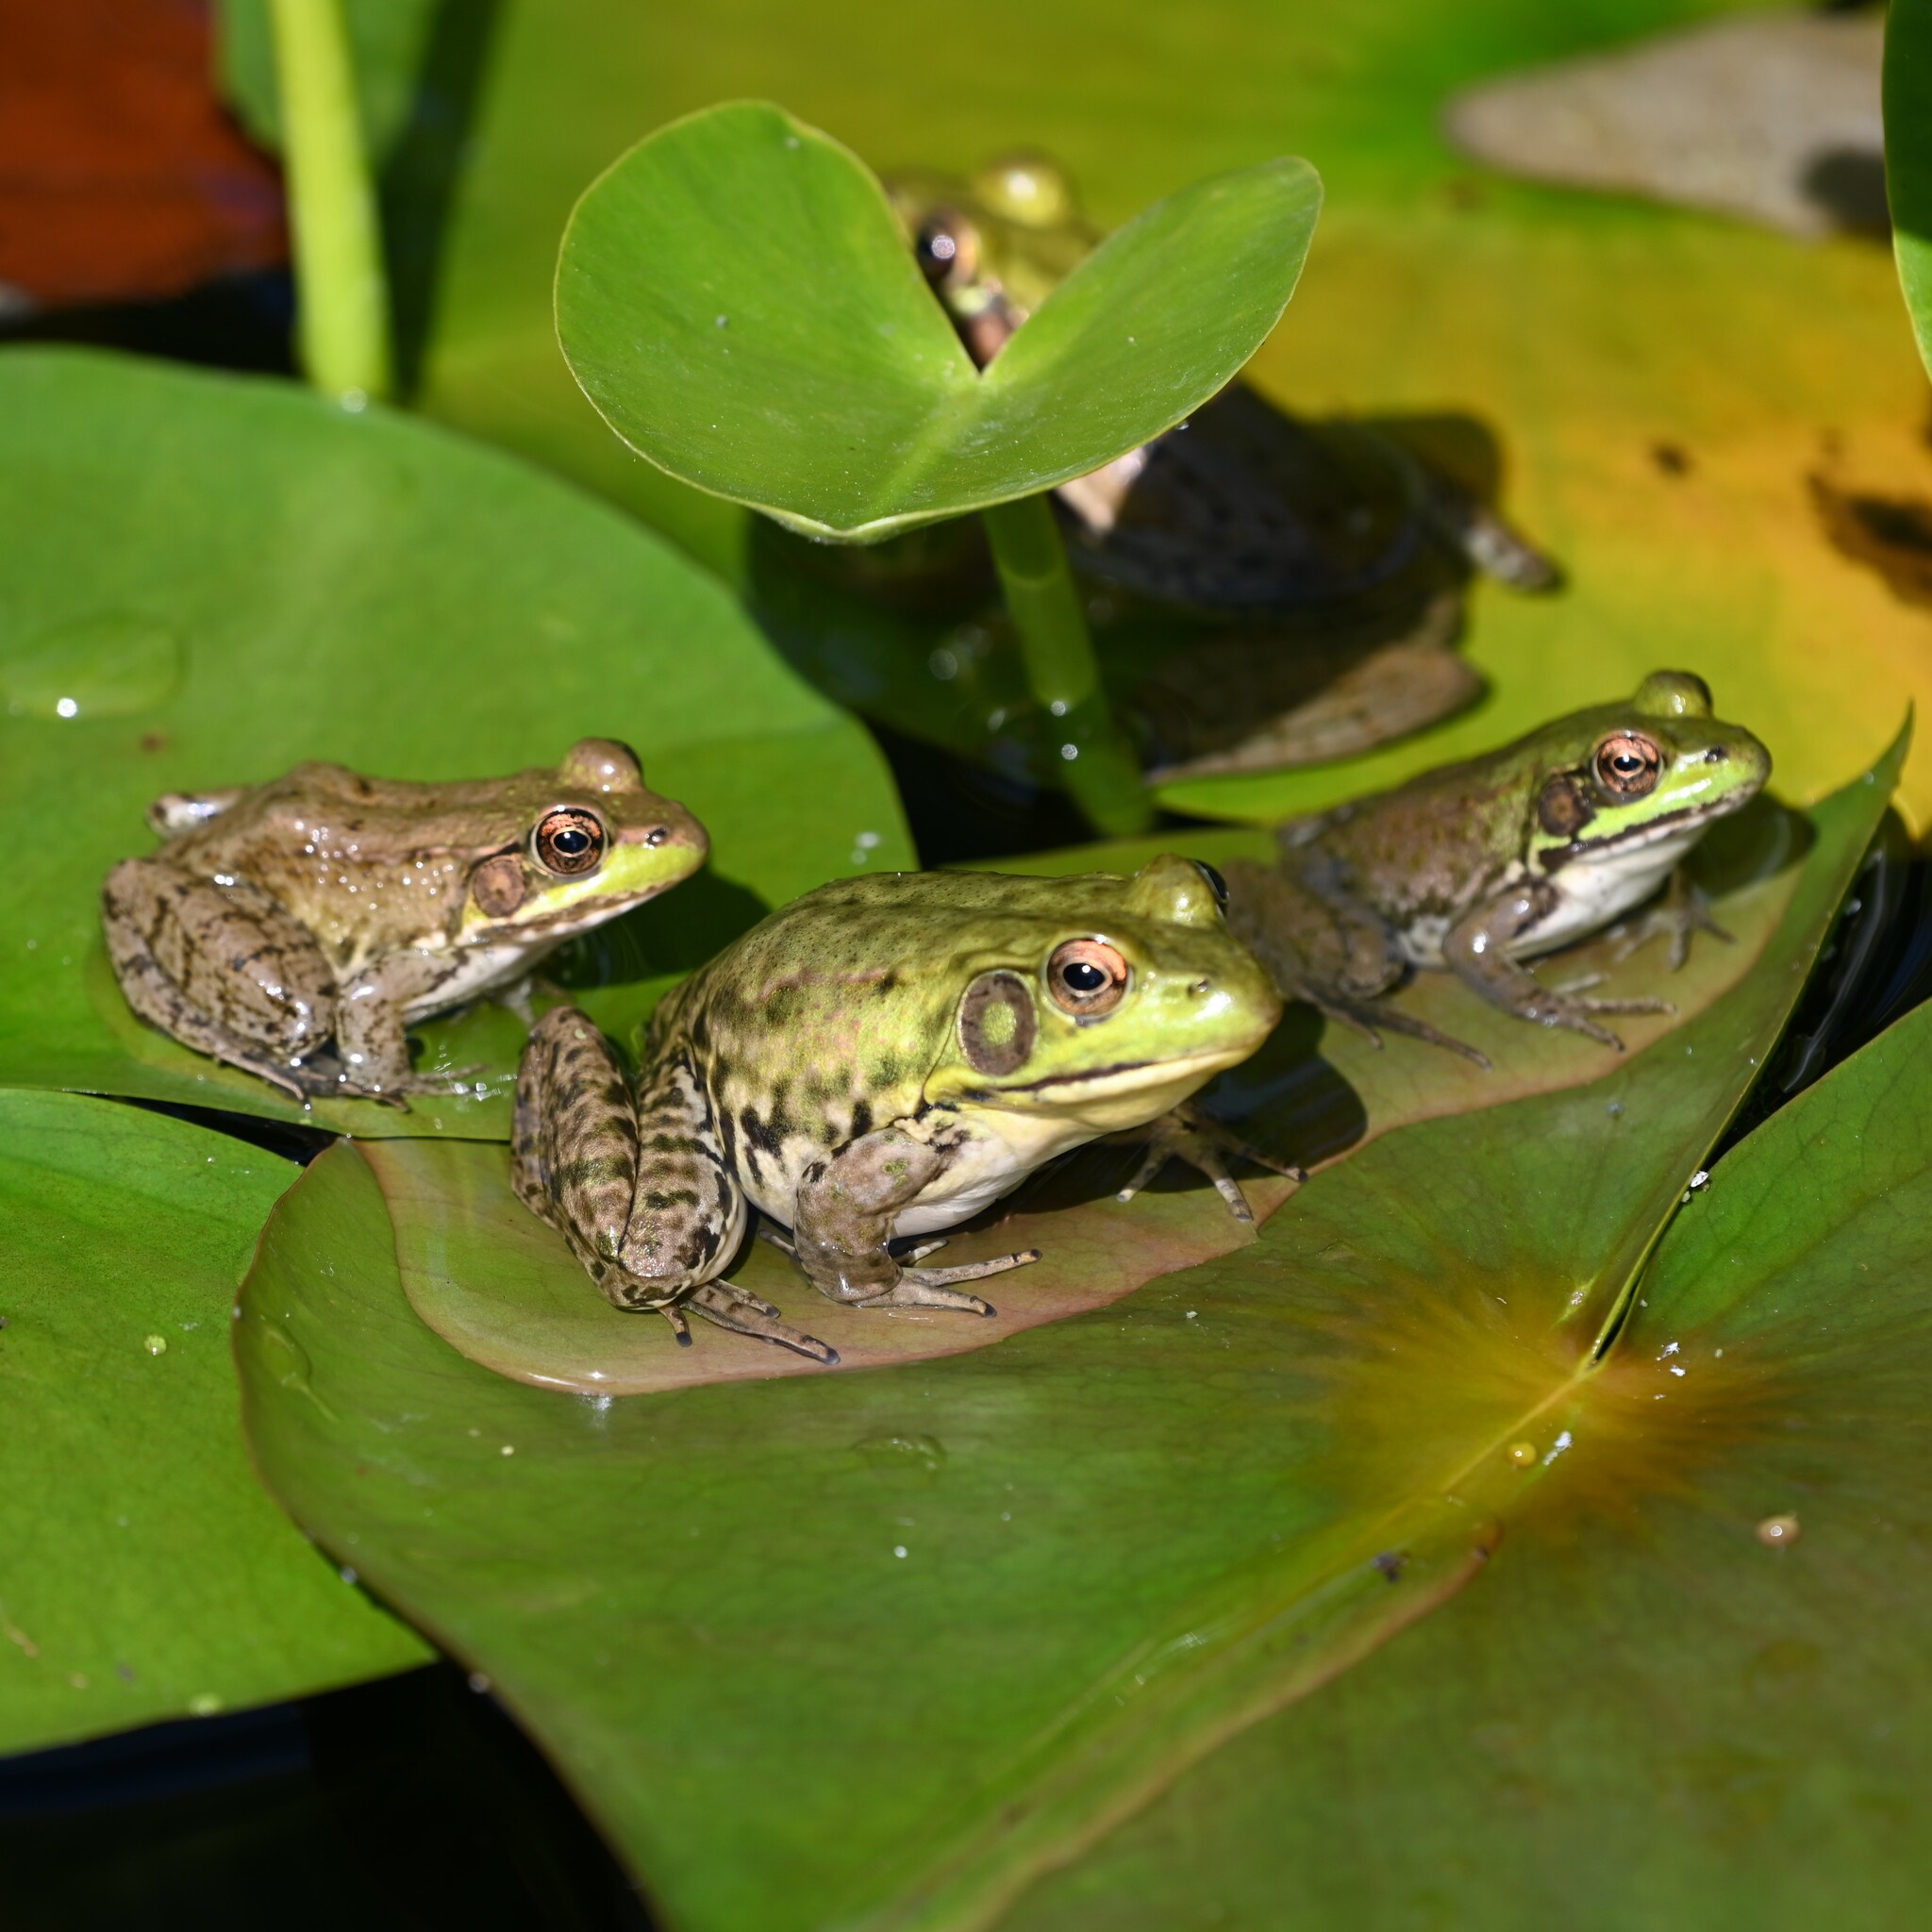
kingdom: Animalia
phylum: Chordata
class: Amphibia
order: Anura
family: Ranidae
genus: Lithobates
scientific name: Lithobates clamitans
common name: Green frog
